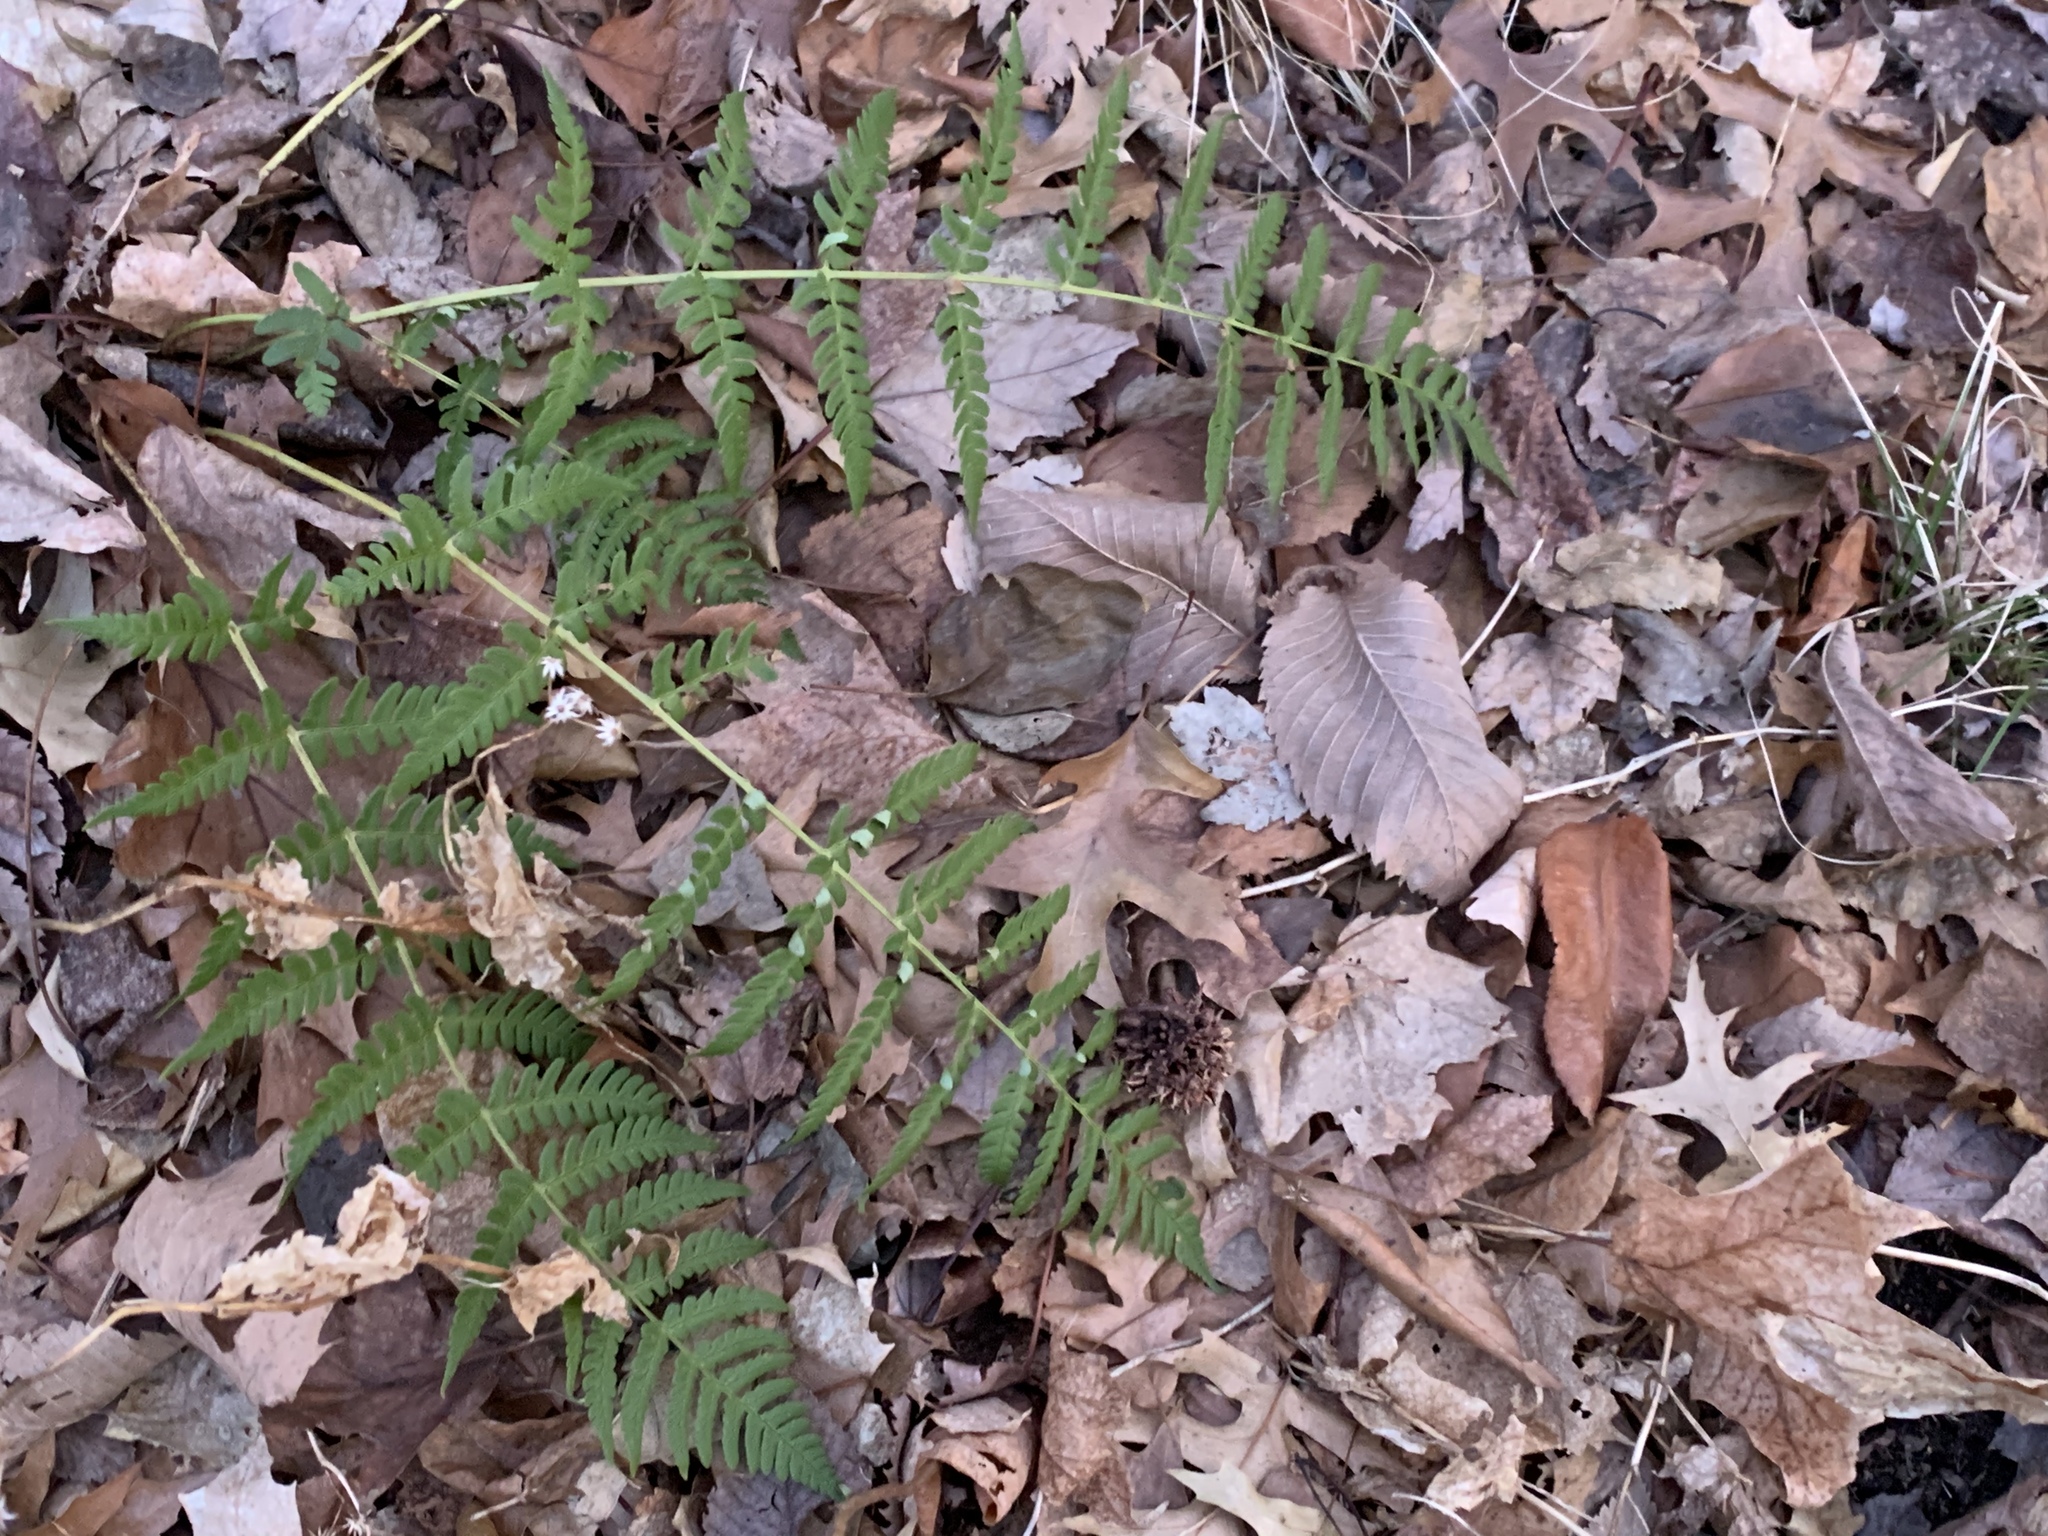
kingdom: Plantae
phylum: Tracheophyta
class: Polypodiopsida
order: Polypodiales
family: Dryopteridaceae
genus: Dryopteris
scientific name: Dryopteris marginalis
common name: Marginal wood fern
